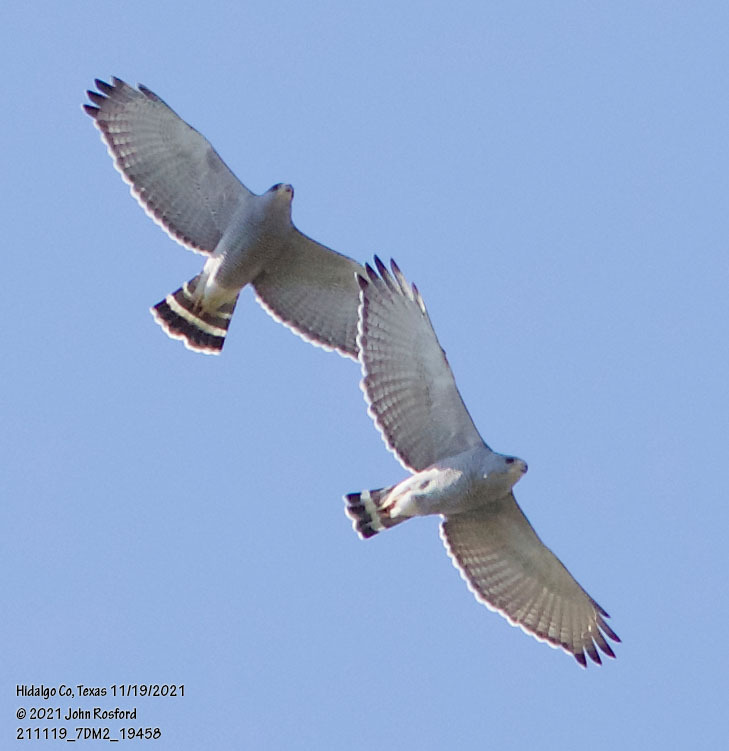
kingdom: Animalia
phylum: Chordata
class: Aves
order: Accipitriformes
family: Accipitridae
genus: Buteo
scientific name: Buteo nitidus
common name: Grey-lined hawk
